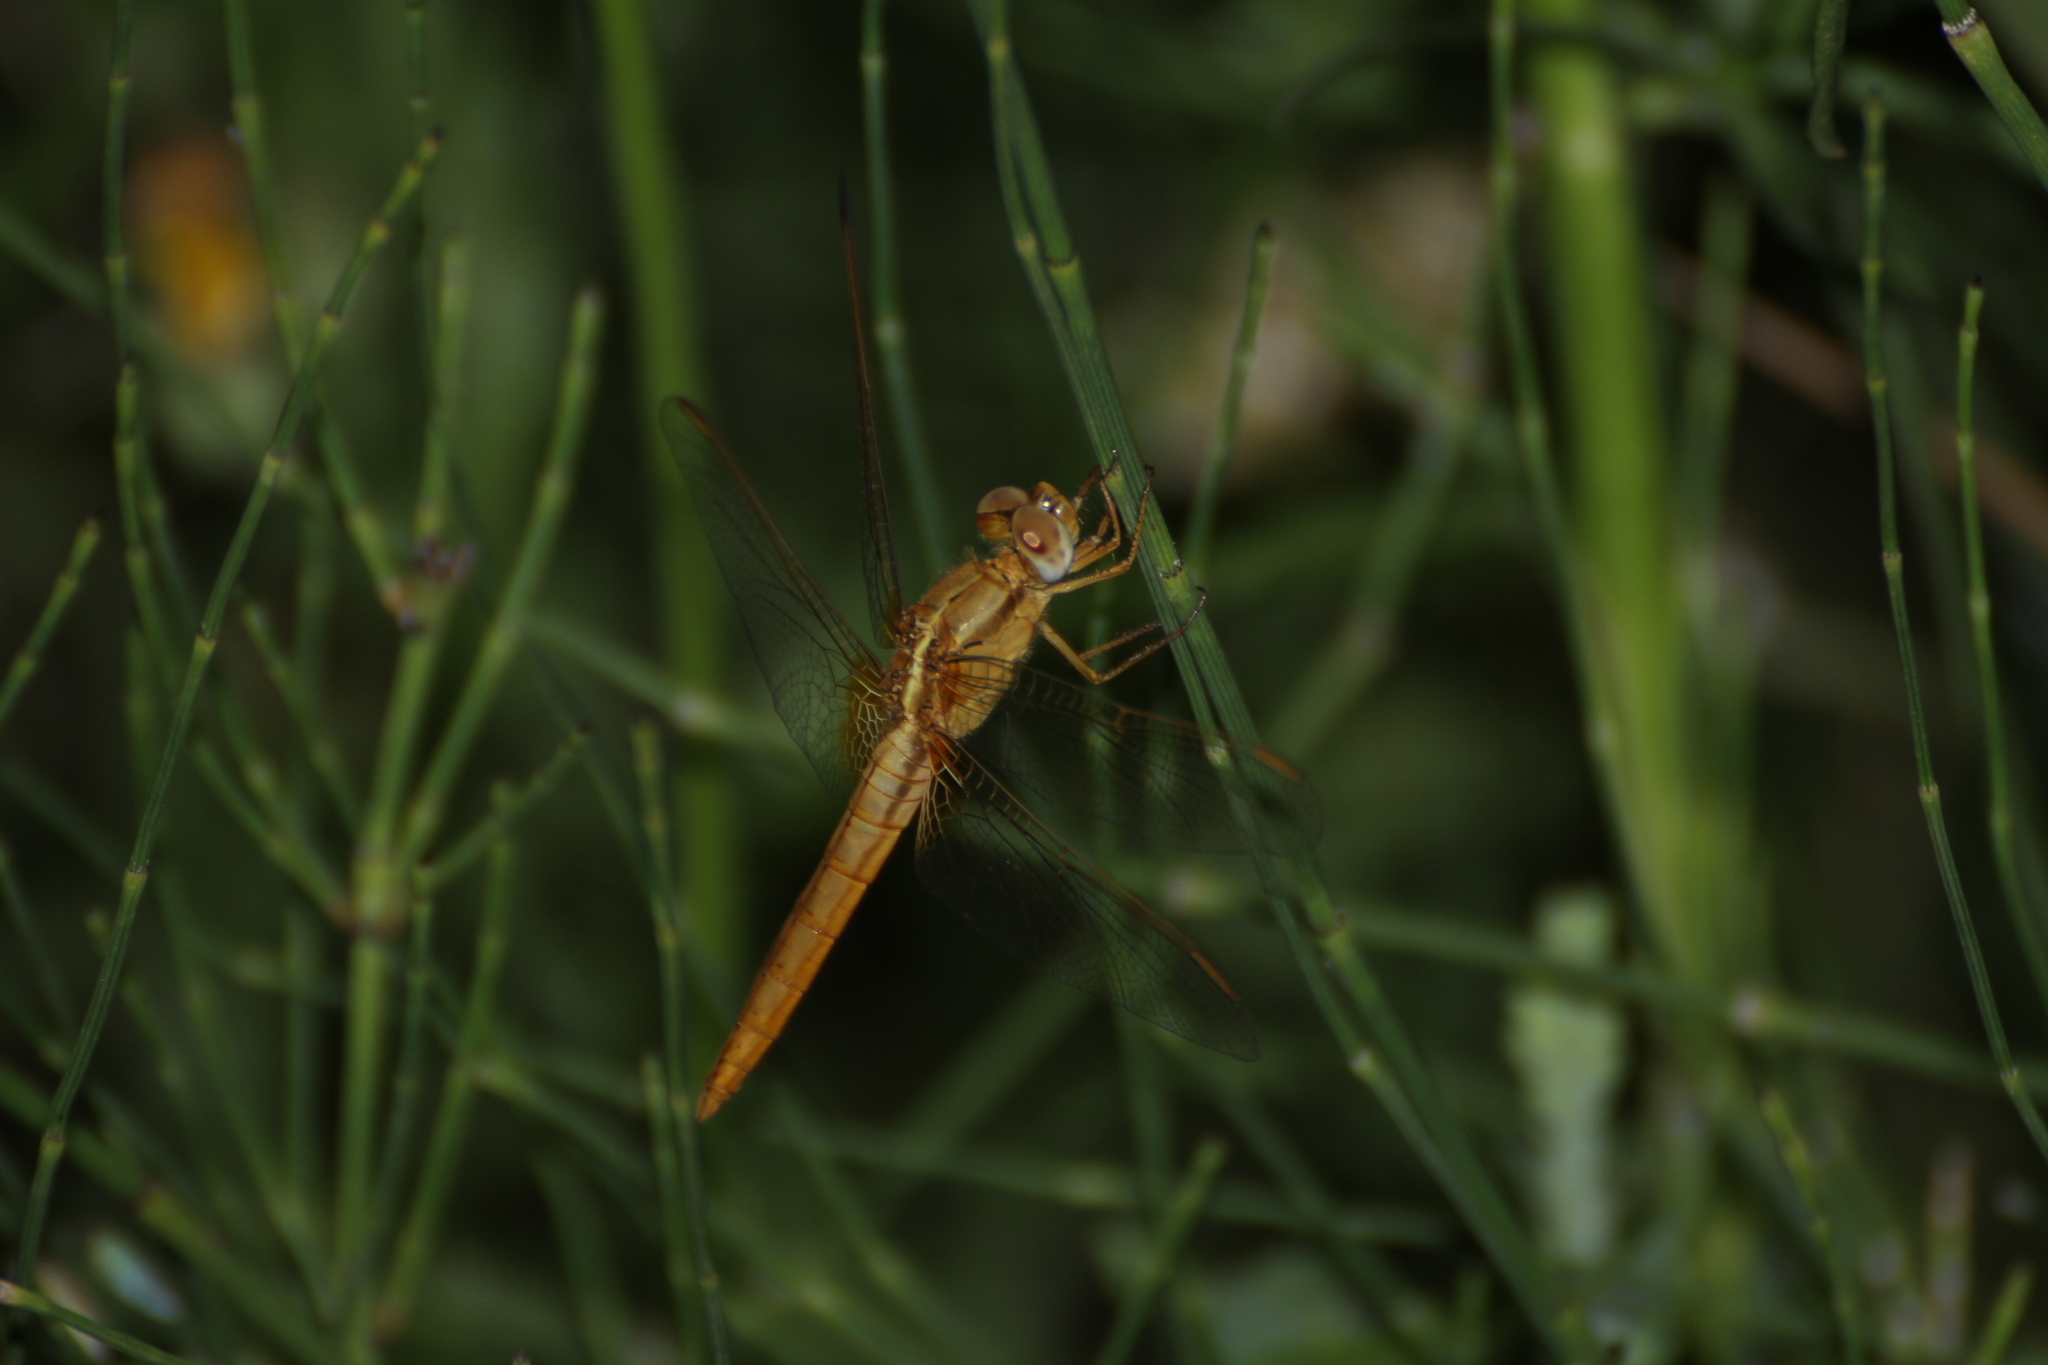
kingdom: Animalia
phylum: Arthropoda
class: Insecta
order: Odonata
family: Libellulidae
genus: Crocothemis
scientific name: Crocothemis erythraea
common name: Scarlet dragonfly
